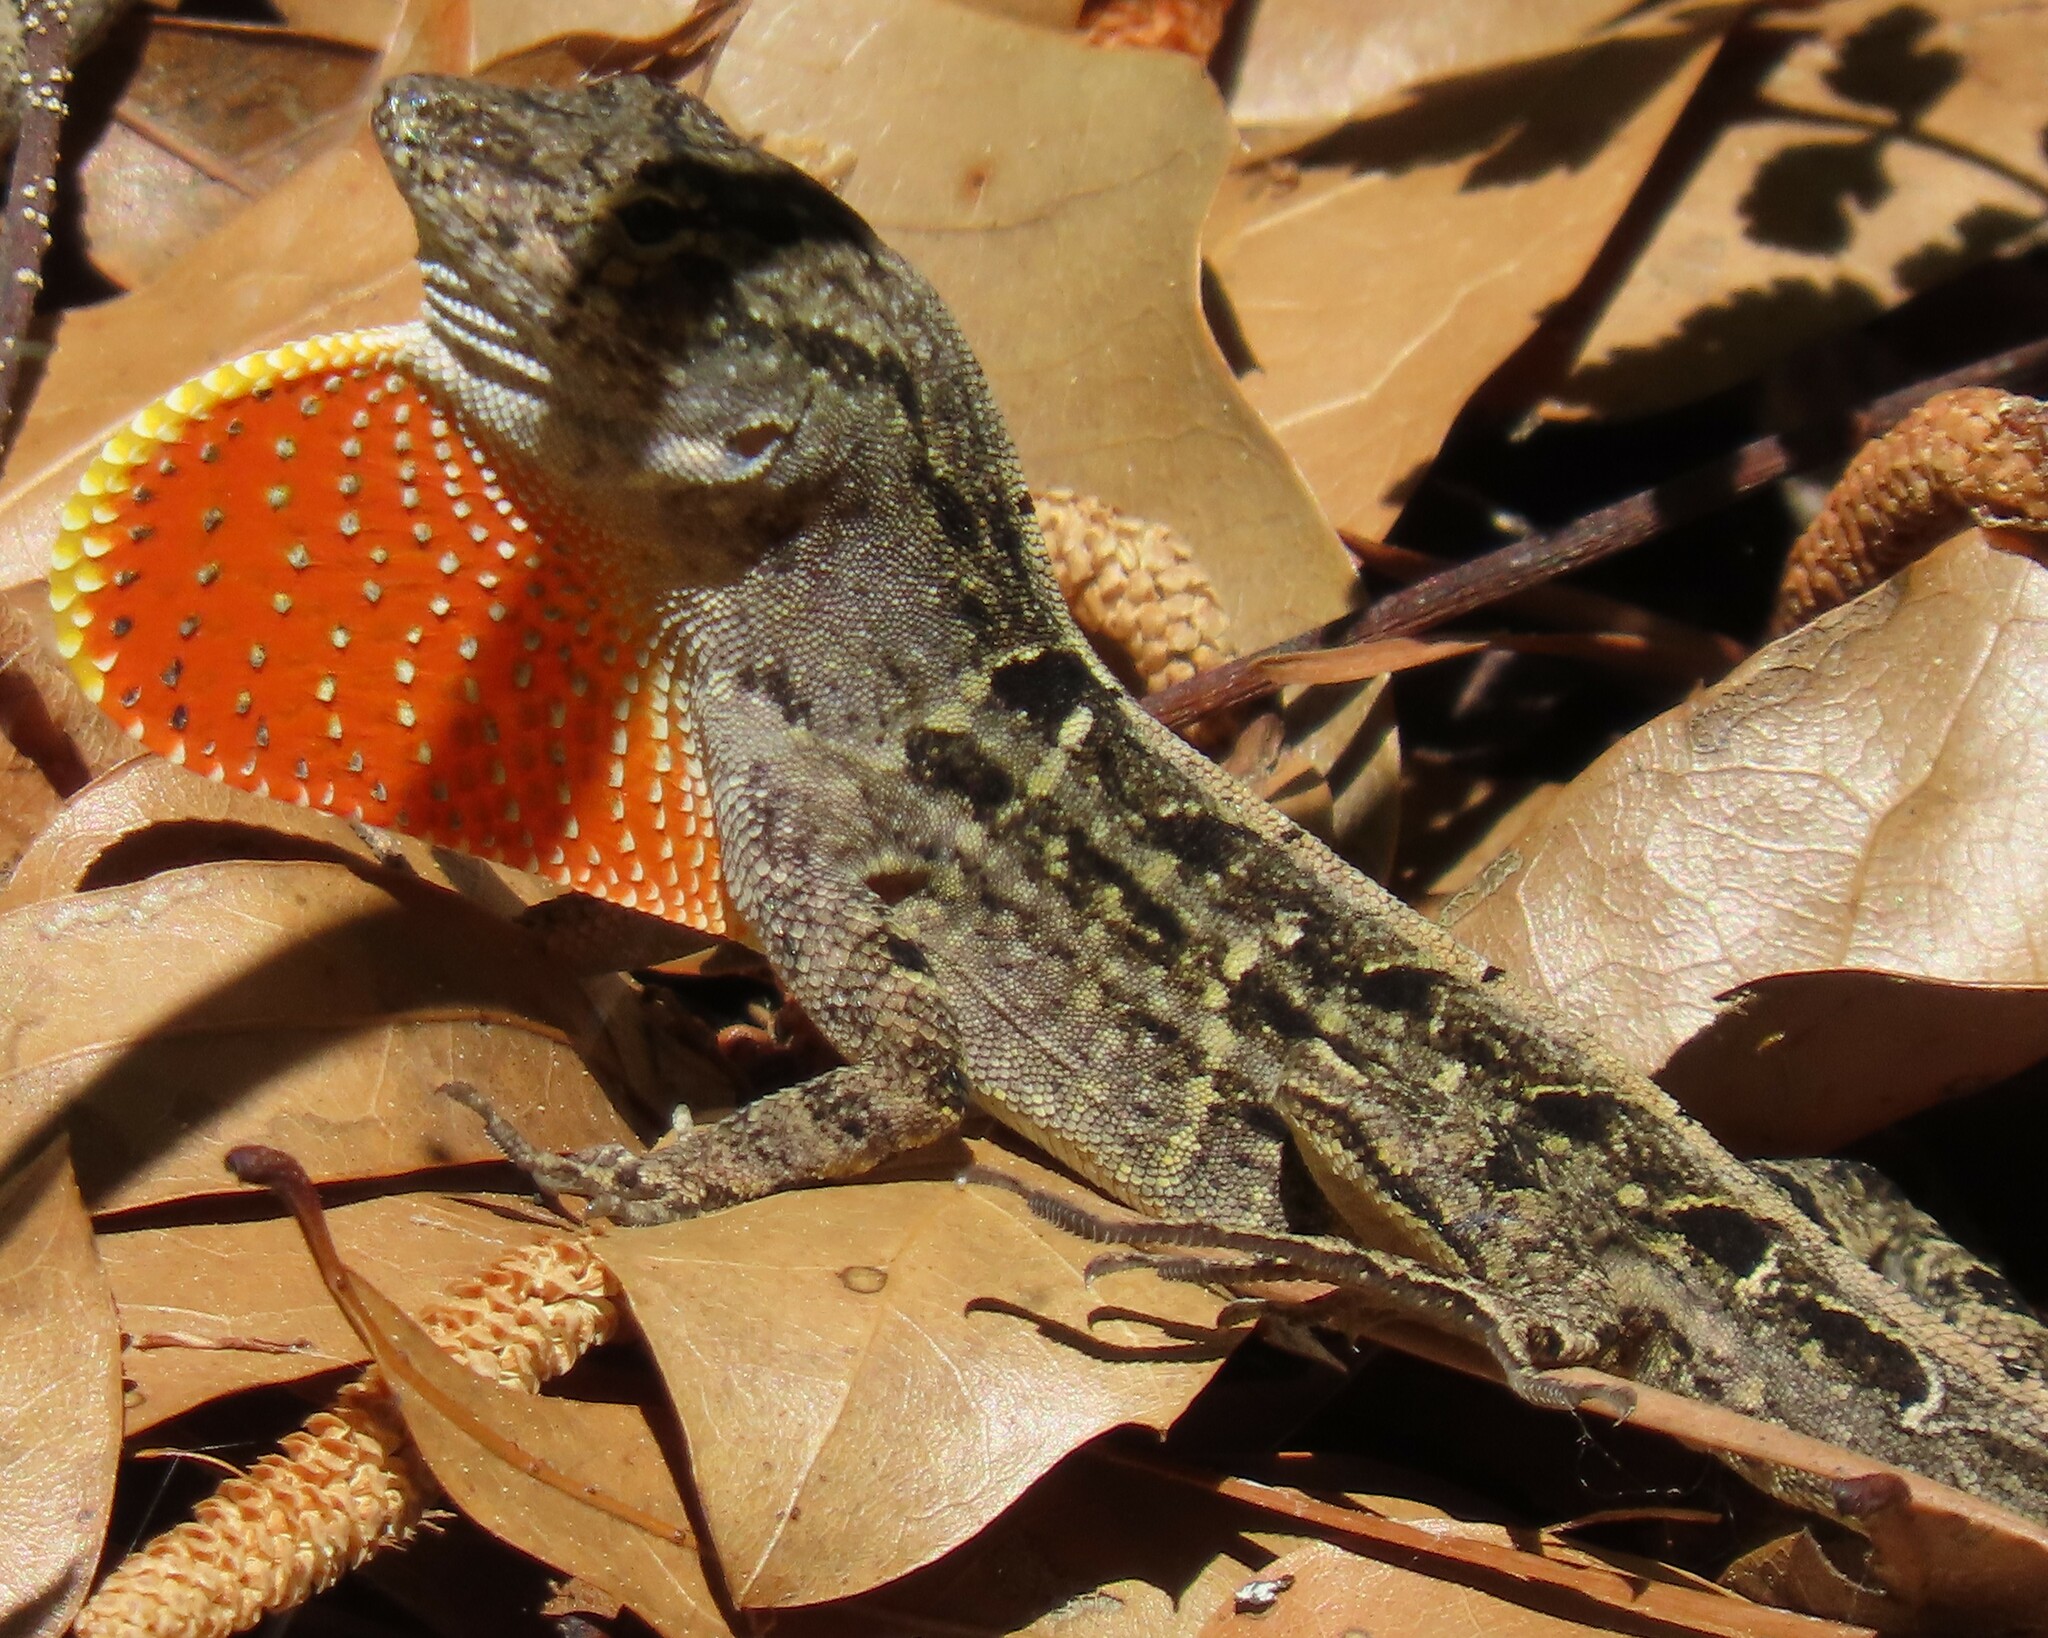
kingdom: Animalia
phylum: Chordata
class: Squamata
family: Dactyloidae
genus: Anolis
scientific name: Anolis sagrei
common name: Brown anole
